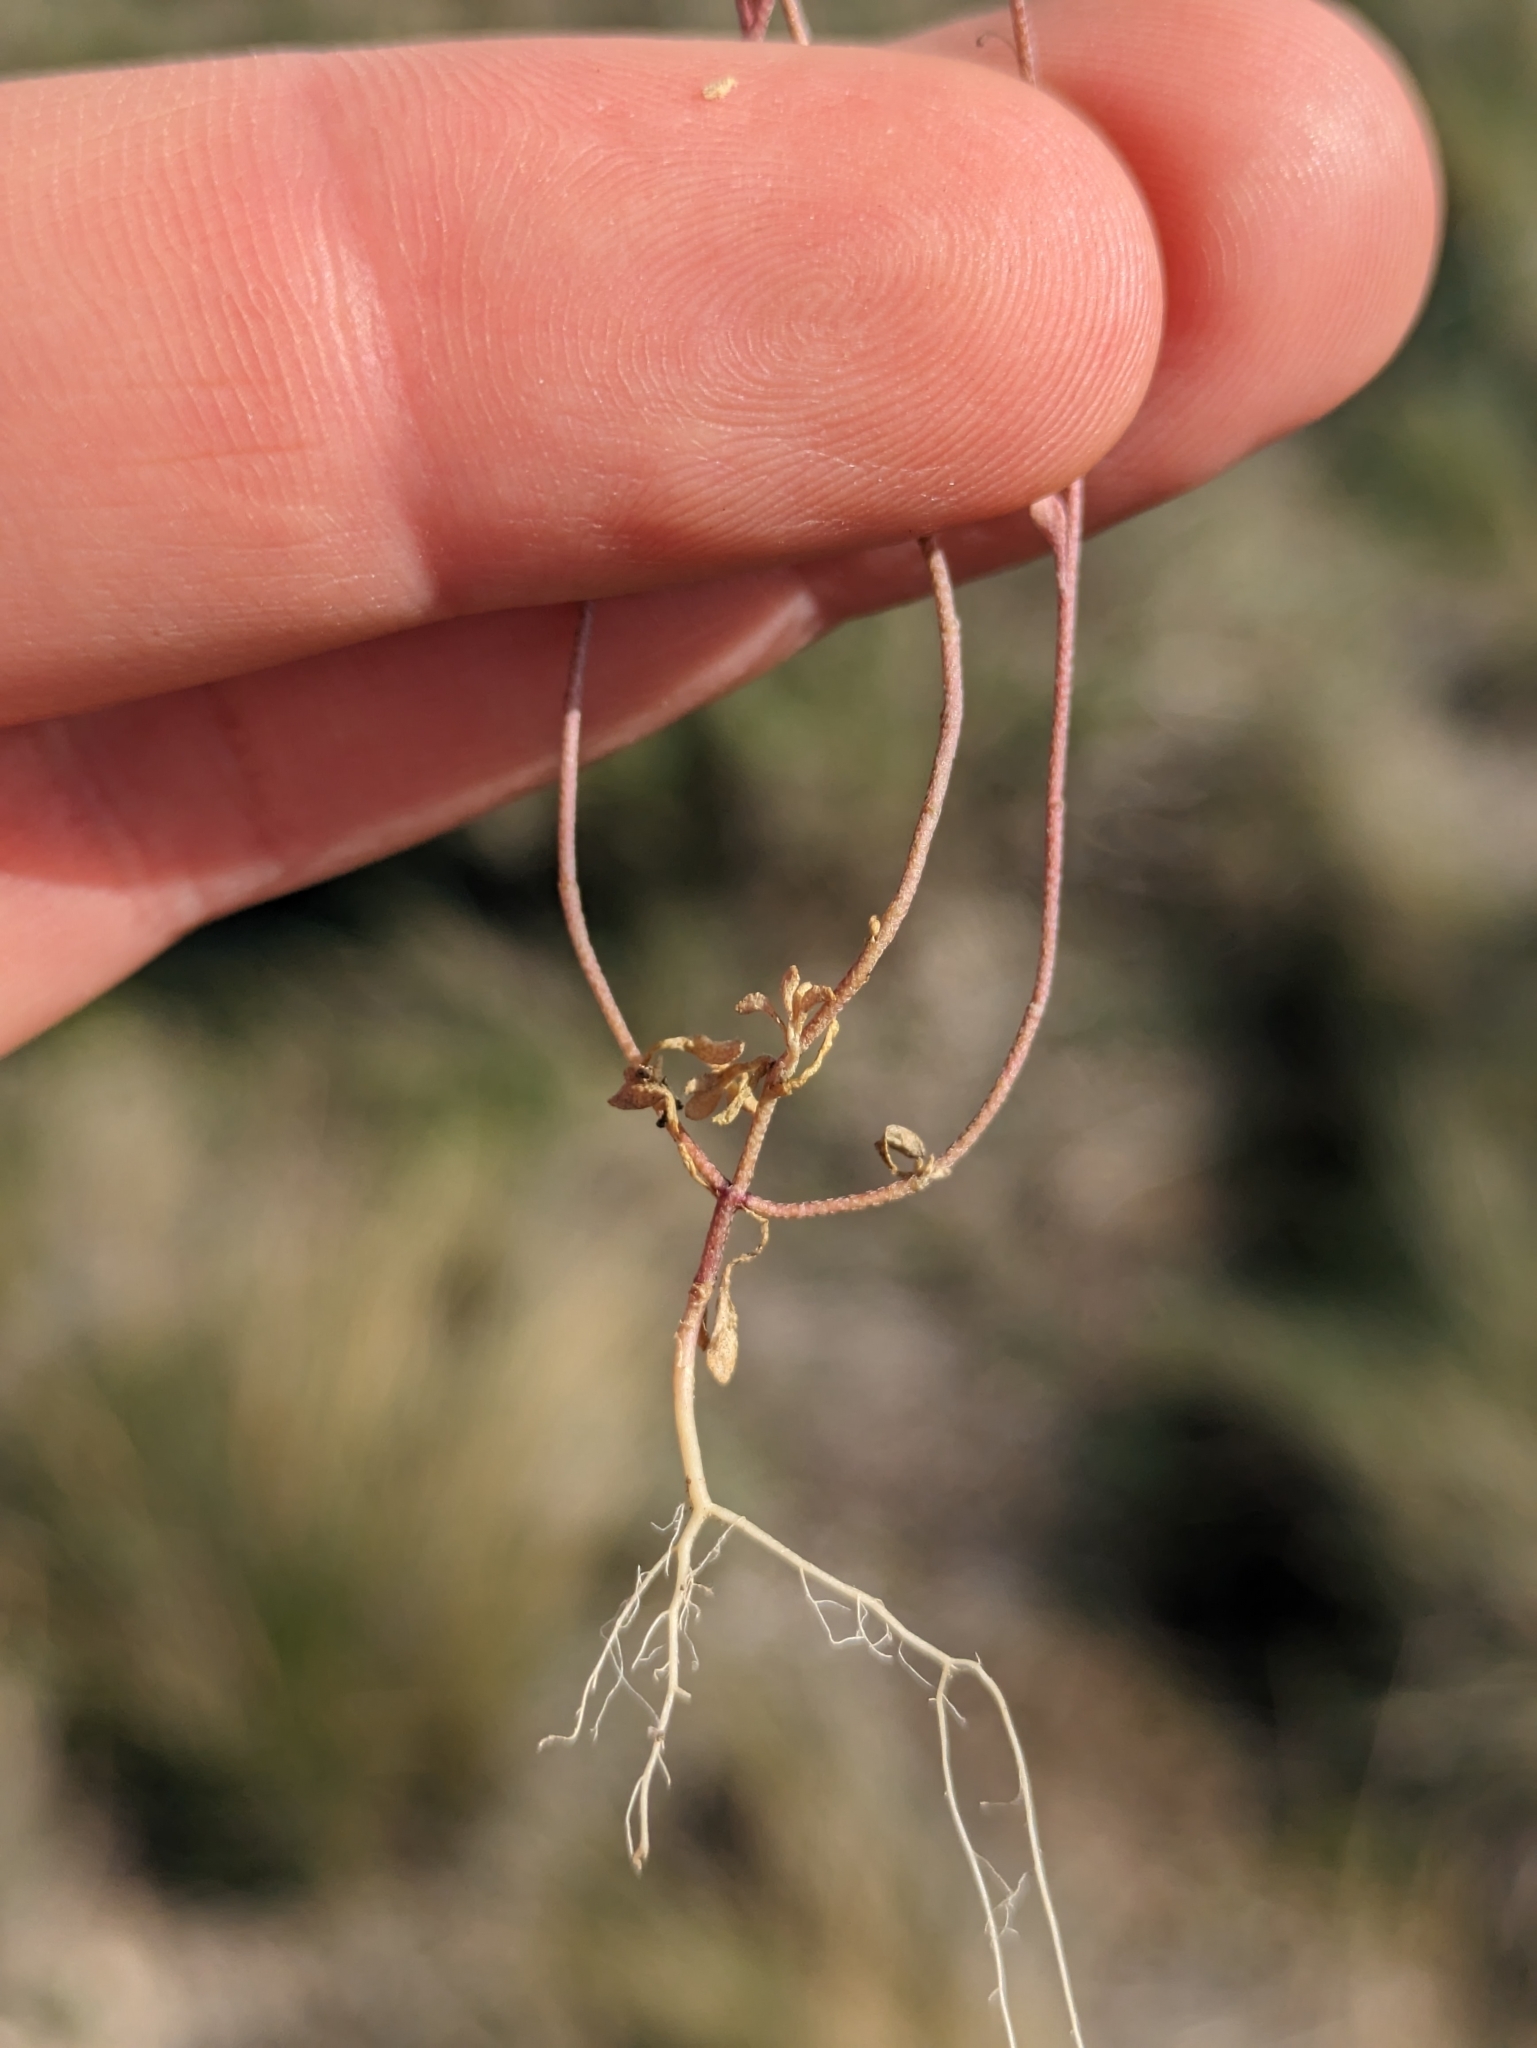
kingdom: Plantae
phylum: Tracheophyta
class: Magnoliopsida
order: Brassicales
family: Brassicaceae
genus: Clypeola
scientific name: Clypeola jonthlaspi
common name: Disk cress
